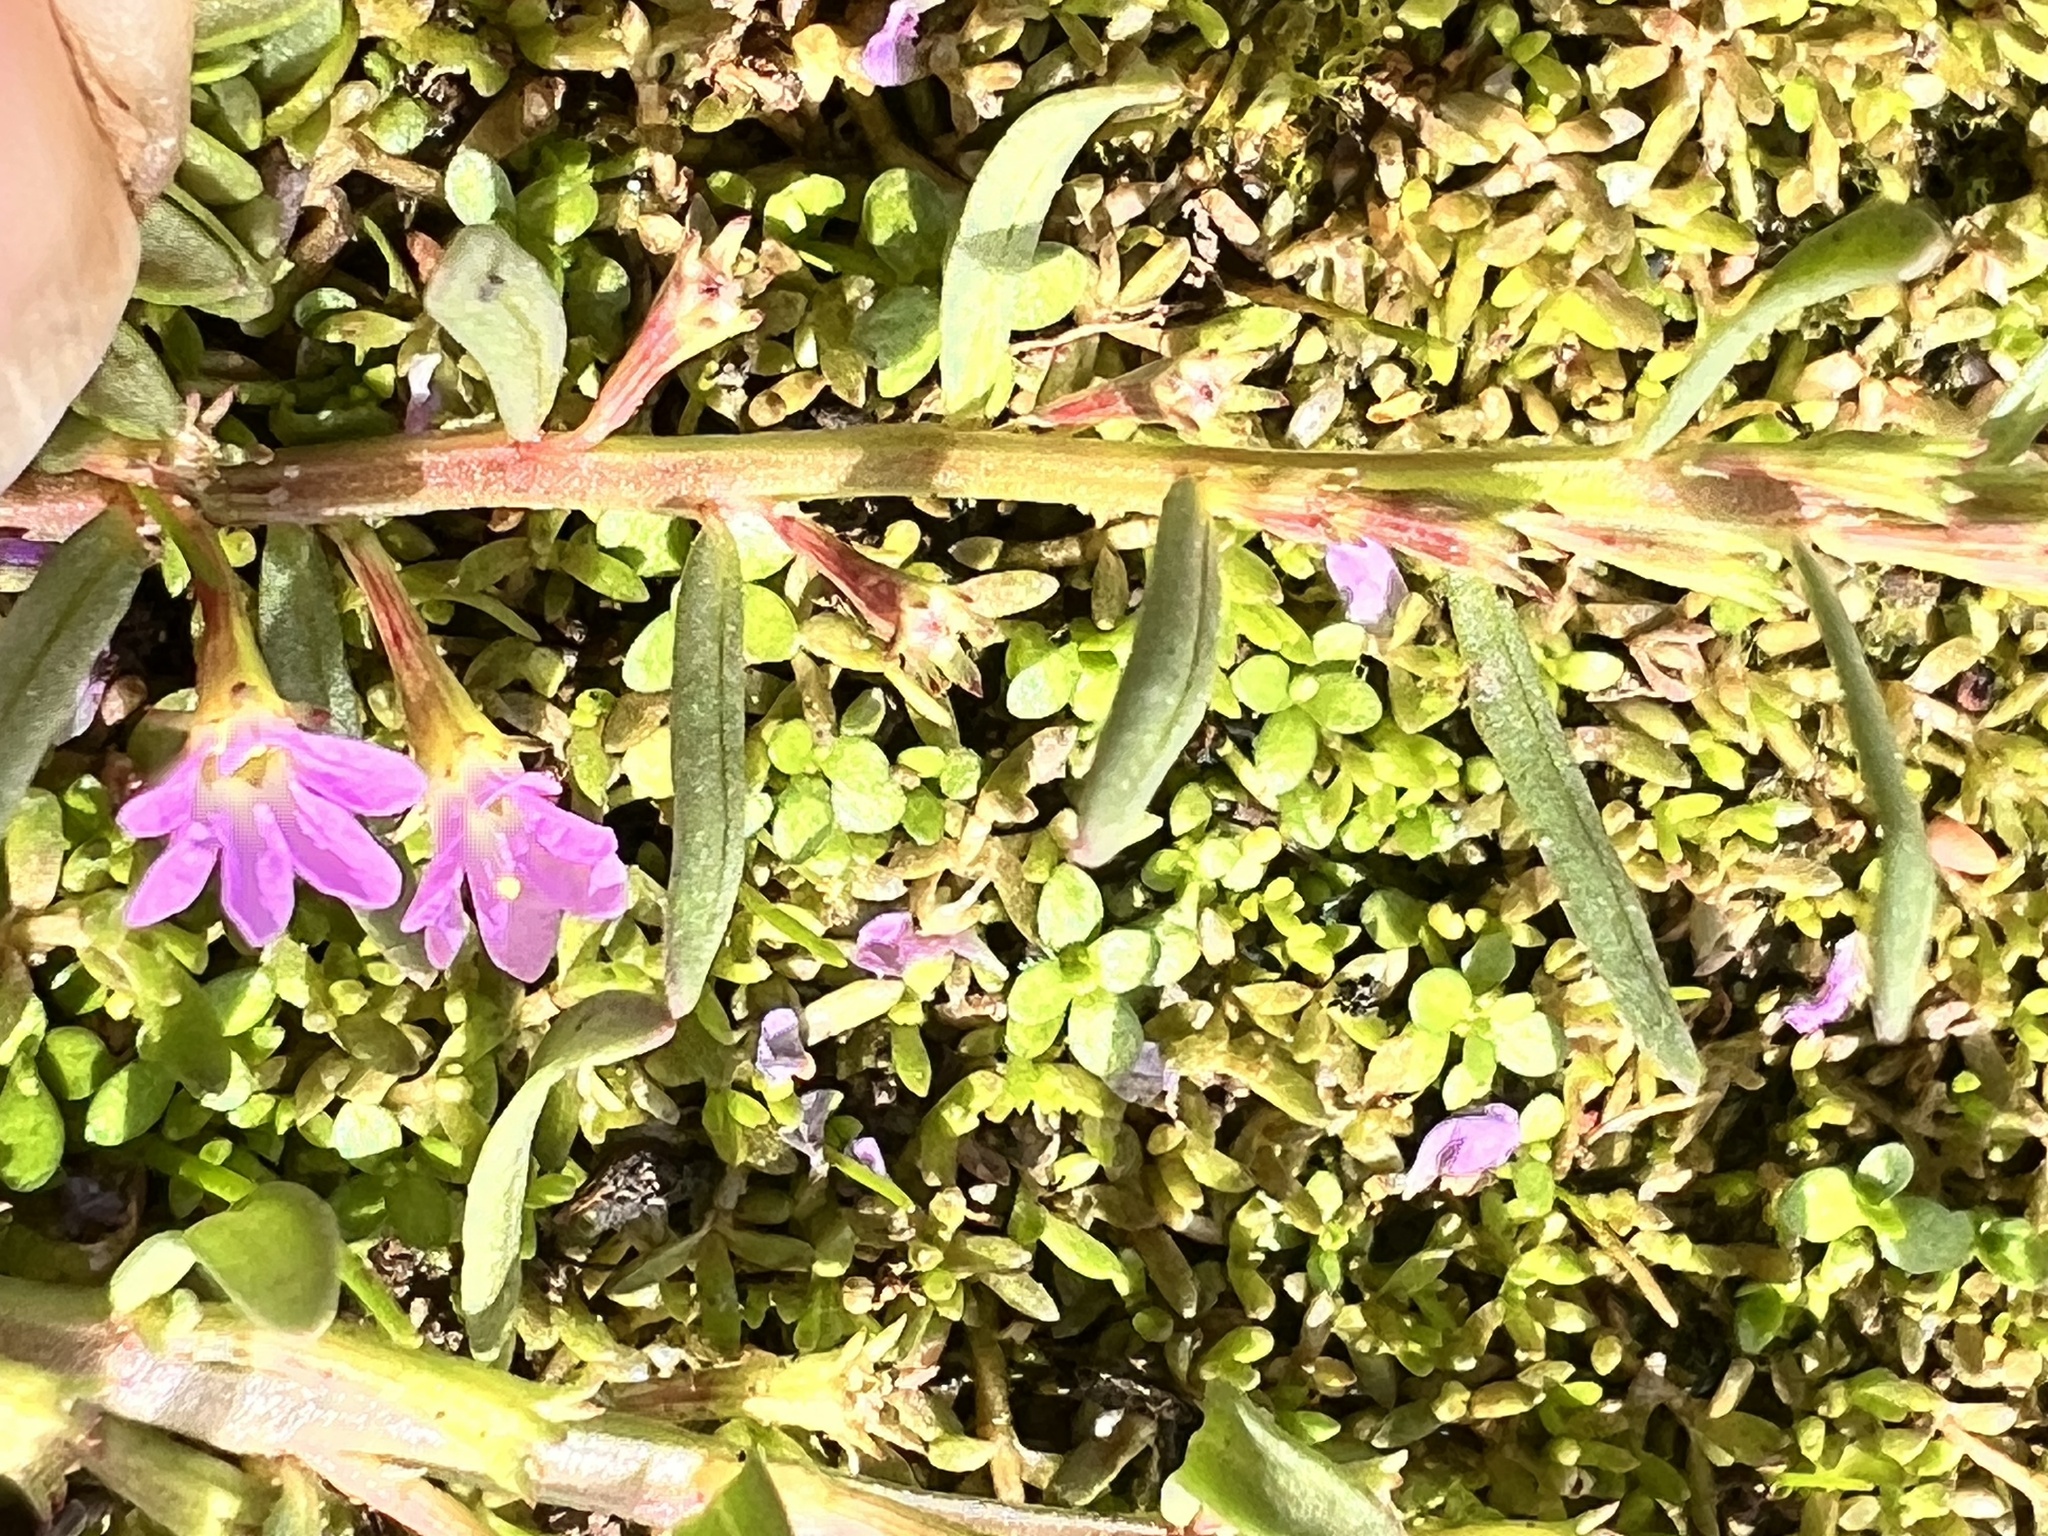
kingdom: Plantae
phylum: Tracheophyta
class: Magnoliopsida
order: Myrtales
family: Lythraceae
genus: Lythrum
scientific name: Lythrum hyssopifolia
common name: Grass-poly
